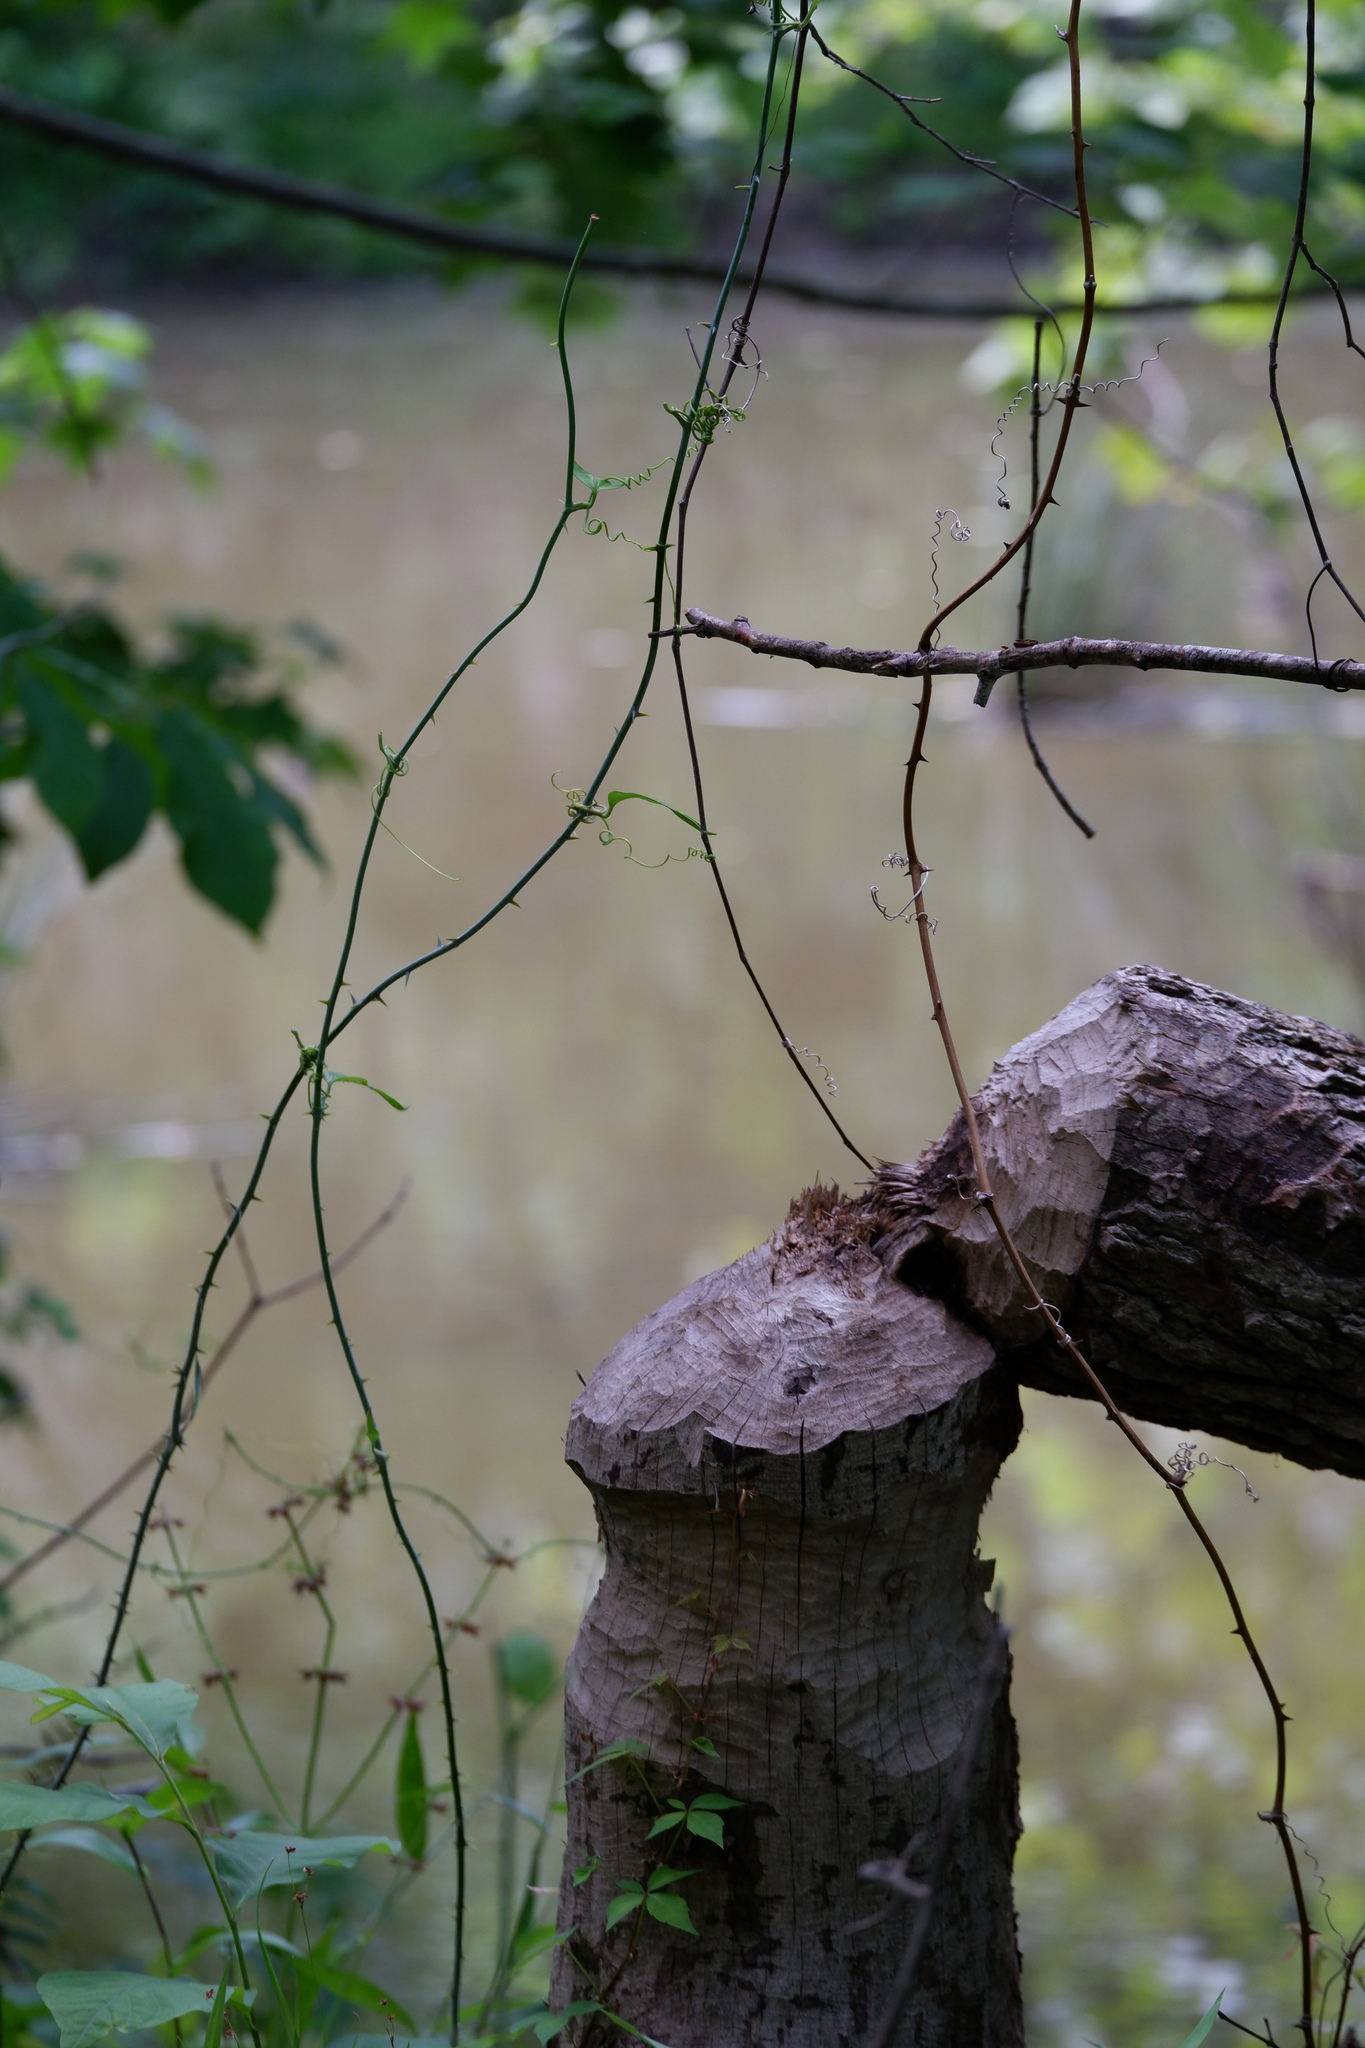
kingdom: Animalia
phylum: Chordata
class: Mammalia
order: Rodentia
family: Castoridae
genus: Castor
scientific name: Castor canadensis
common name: American beaver
